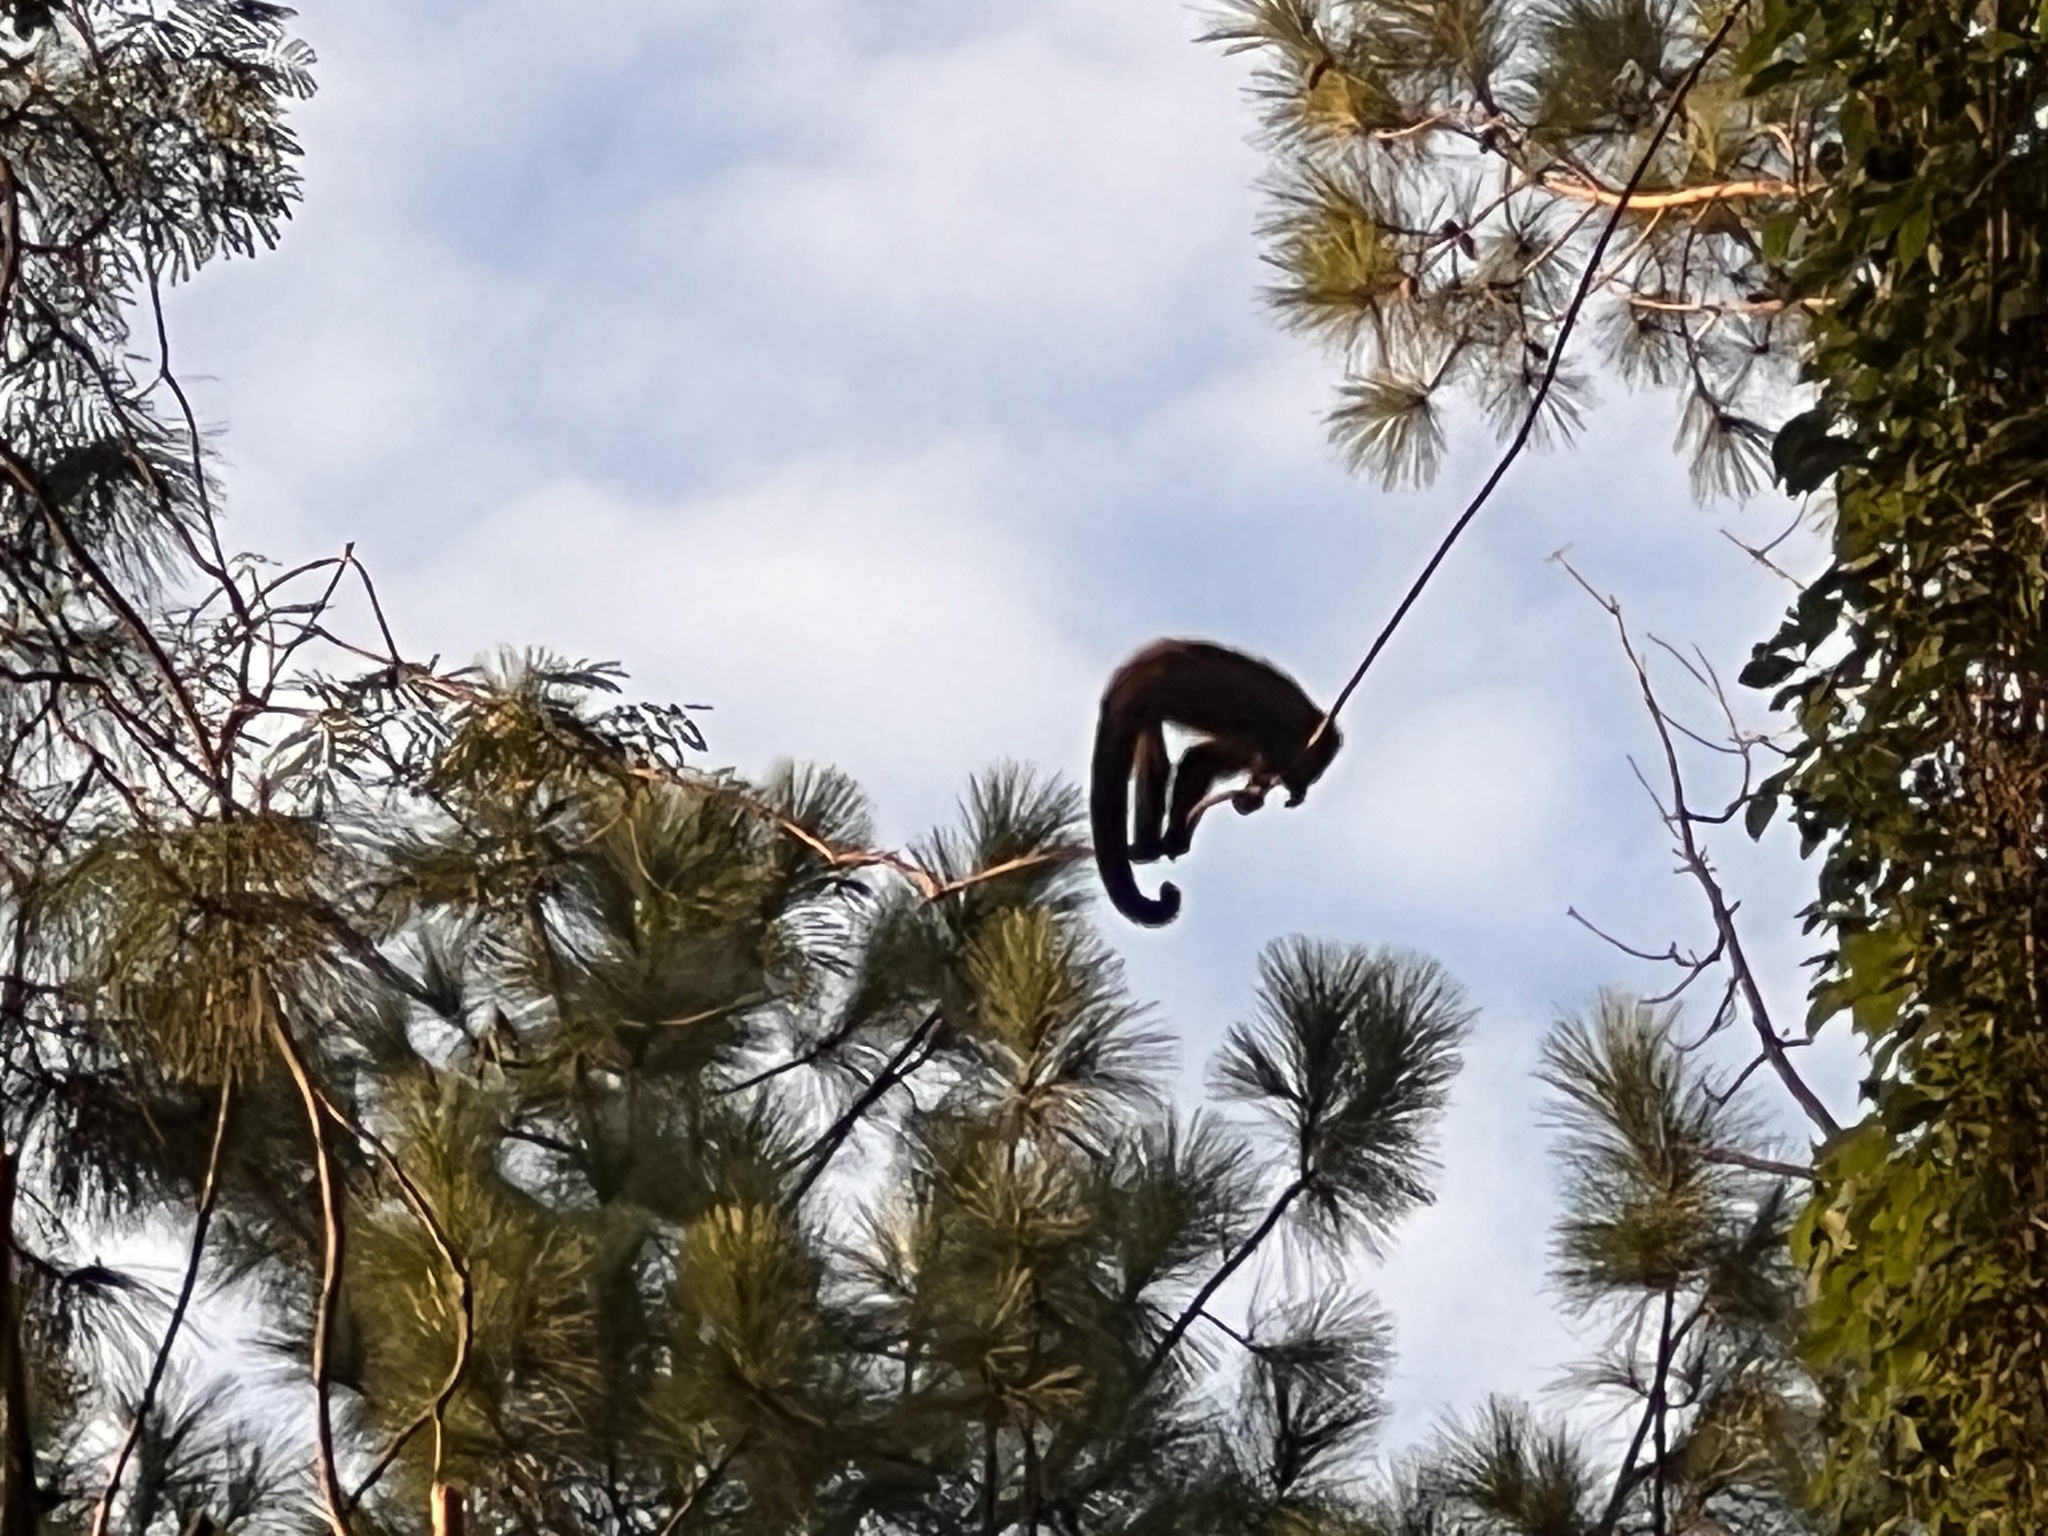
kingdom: Animalia
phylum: Chordata
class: Mammalia
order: Primates
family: Cebidae
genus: Sapajus
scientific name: Sapajus cay
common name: Hooded capuchin
